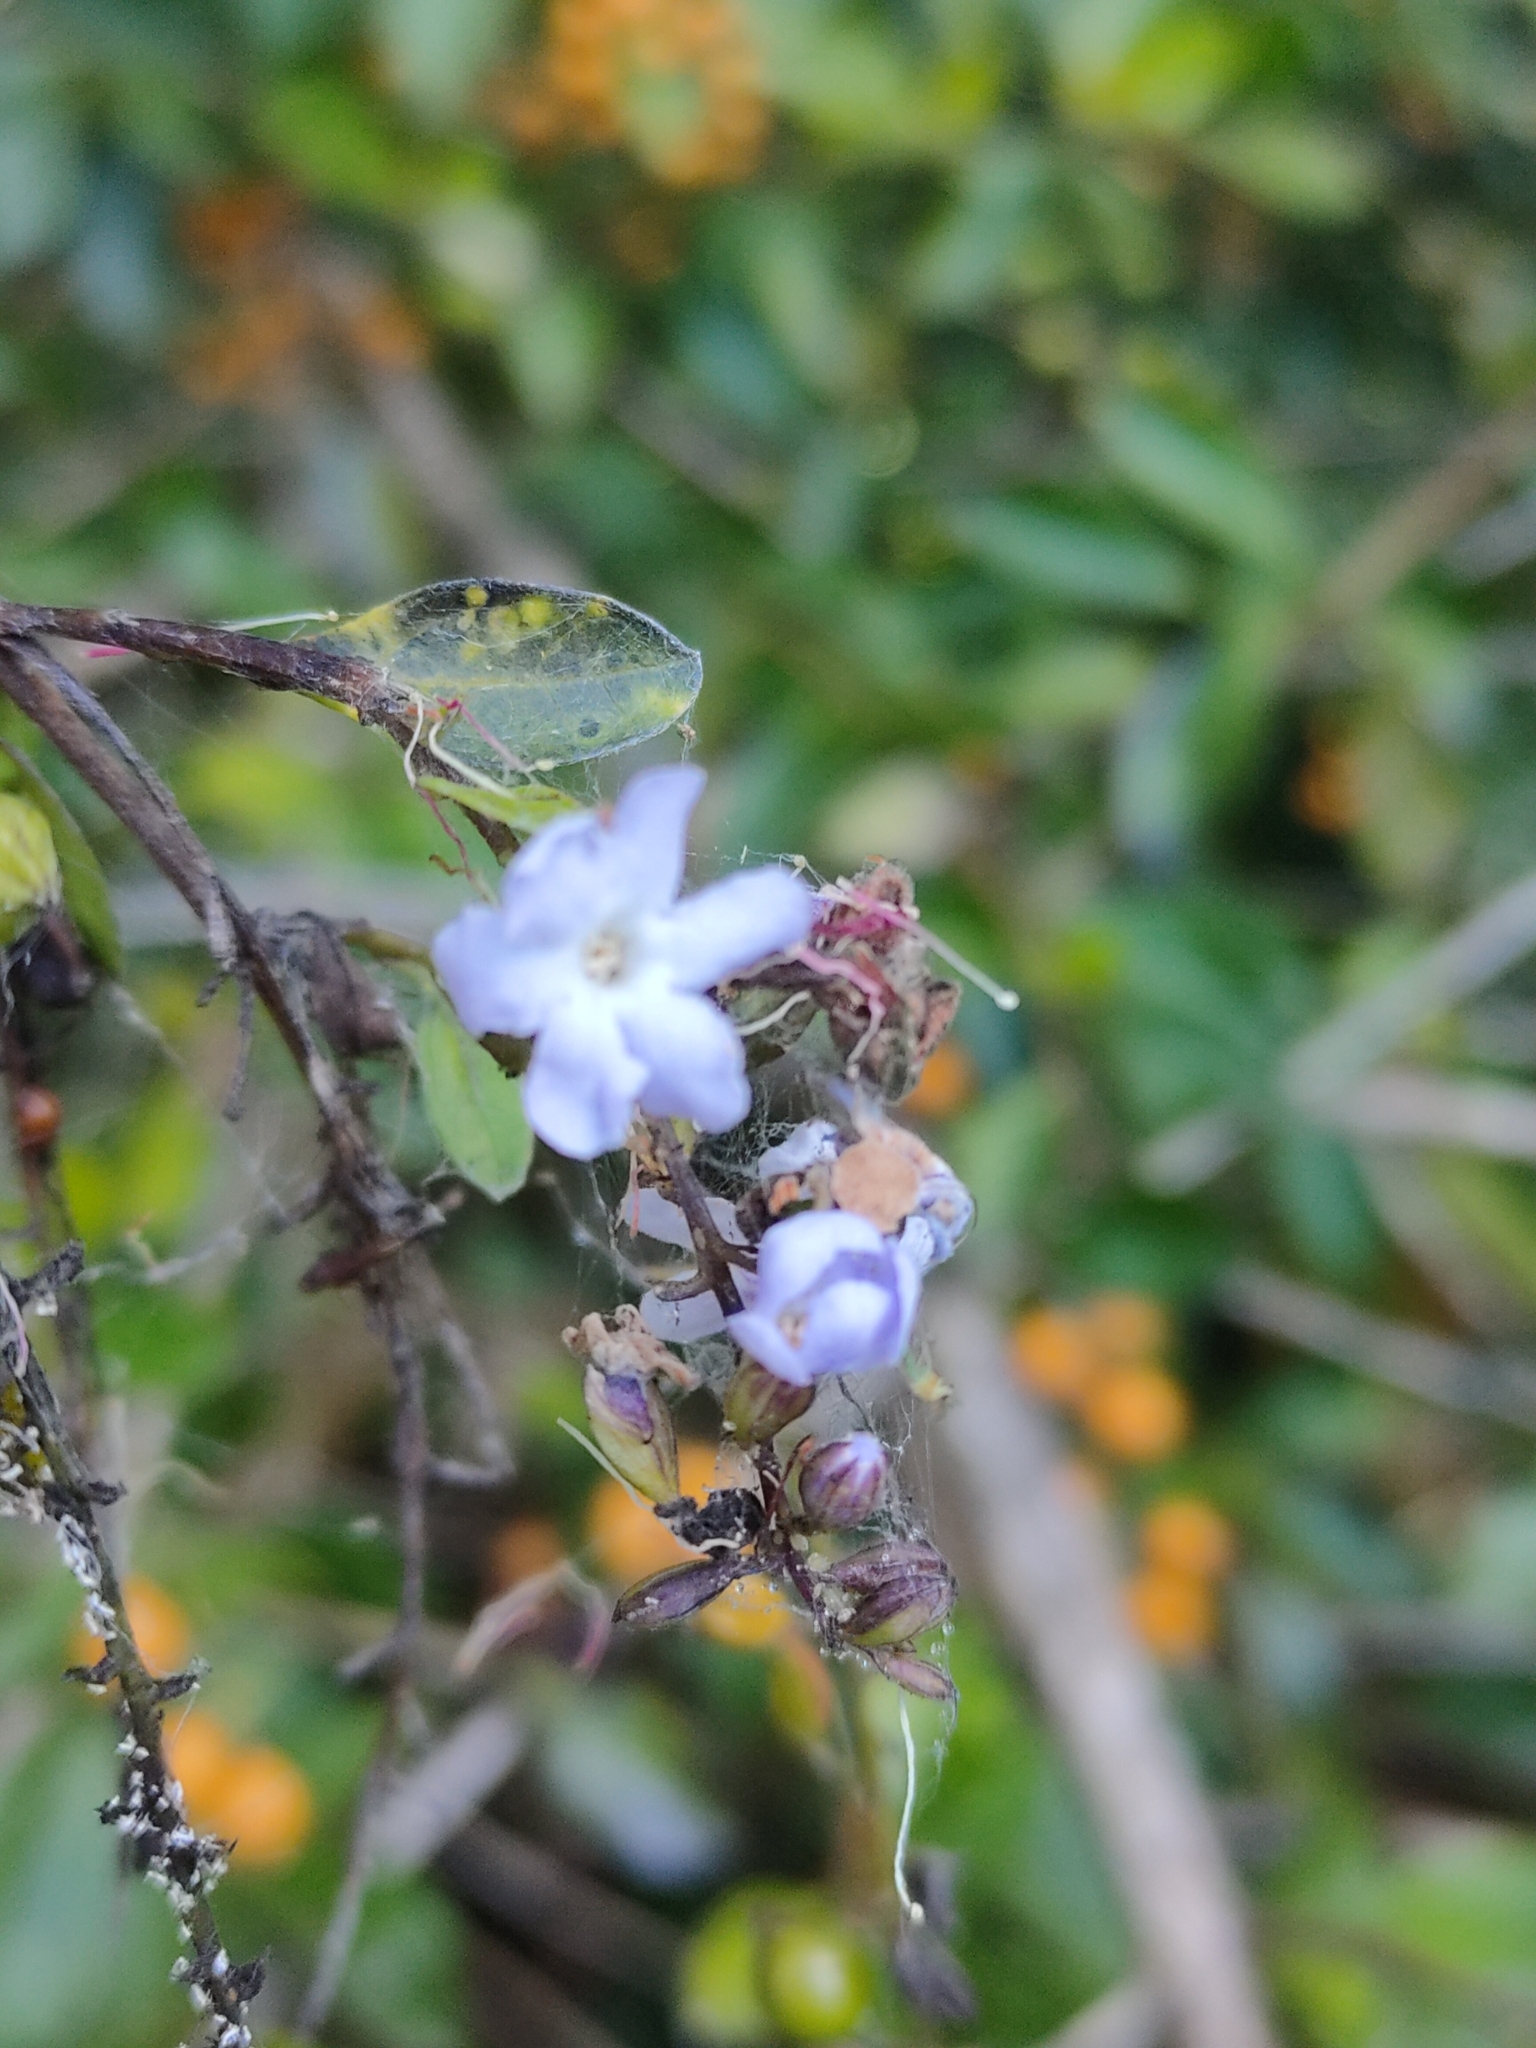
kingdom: Plantae
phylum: Tracheophyta
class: Magnoliopsida
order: Lamiales
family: Verbenaceae
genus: Duranta
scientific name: Duranta erecta
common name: Golden dewdrops
